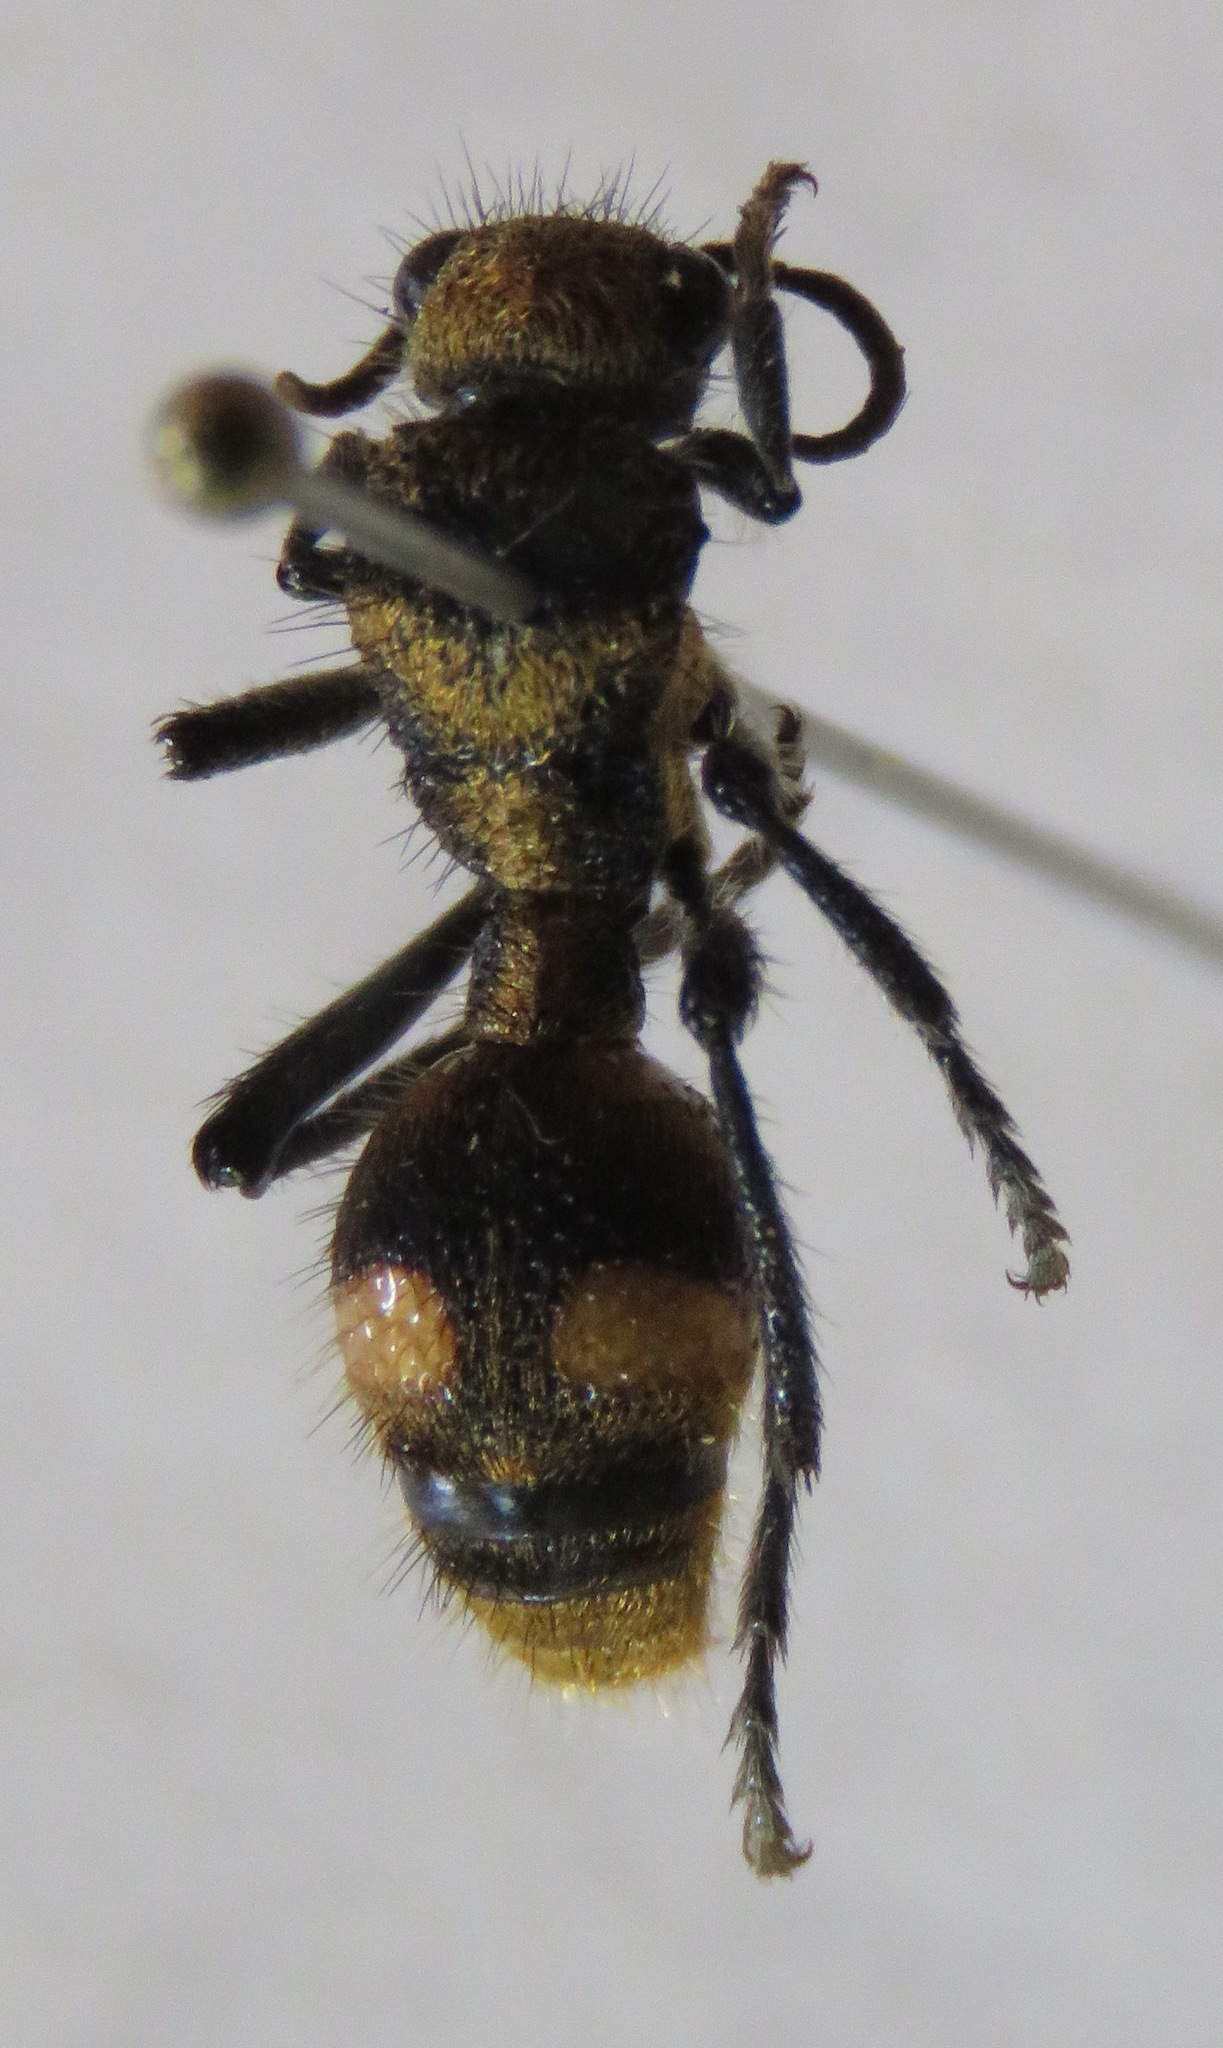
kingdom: Animalia
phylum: Arthropoda
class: Insecta
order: Hymenoptera
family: Mutillidae
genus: Dasymutilla
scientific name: Dasymutilla paradoxa
